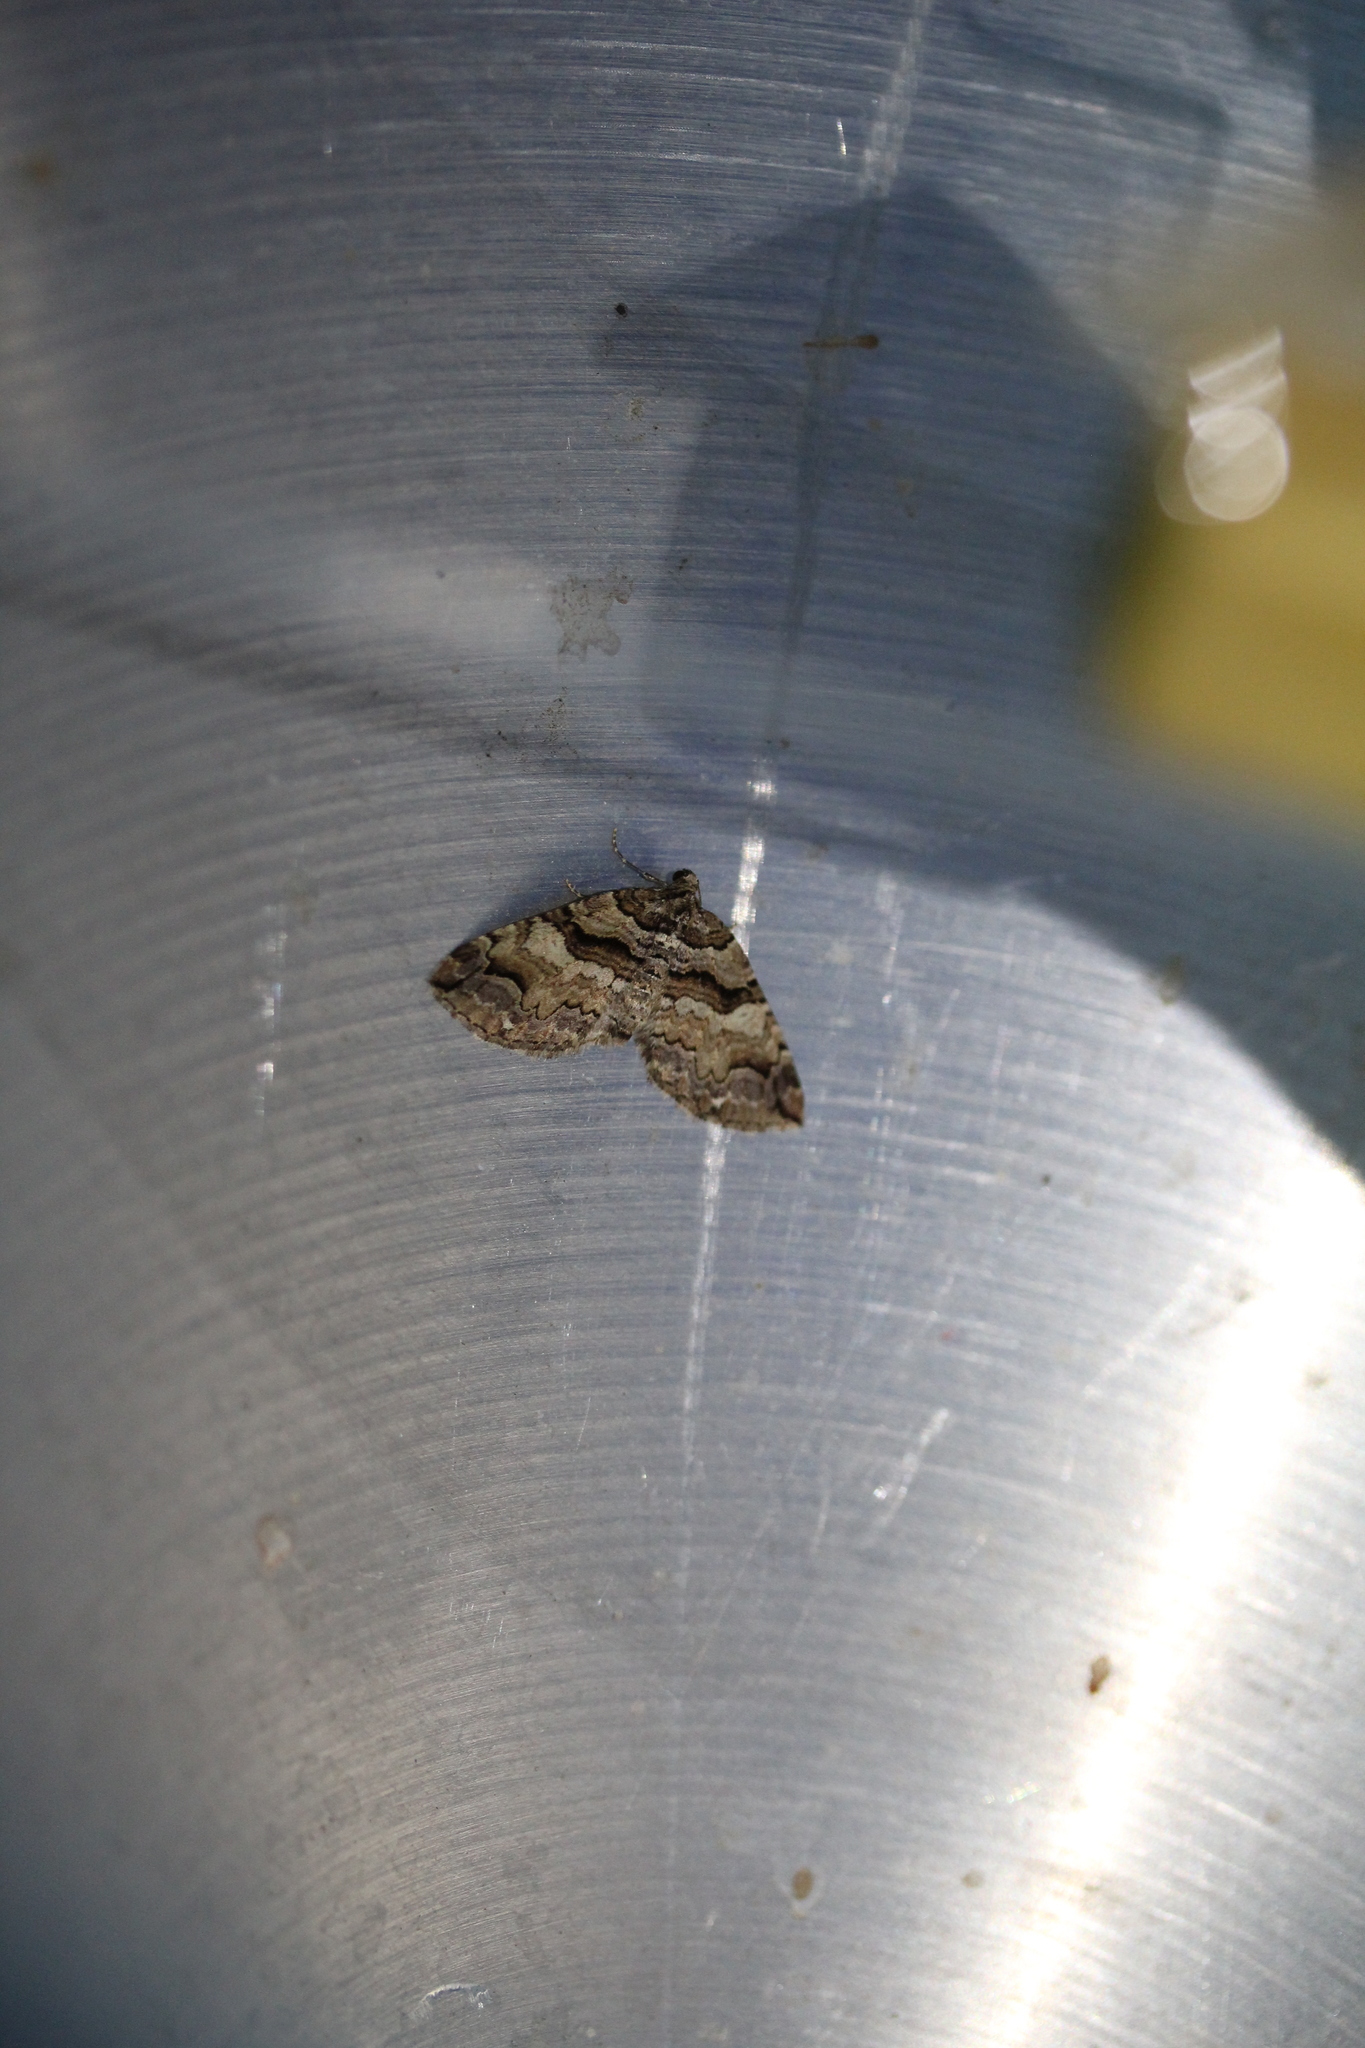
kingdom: Animalia
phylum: Arthropoda
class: Insecta
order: Lepidoptera
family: Geometridae
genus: Anticlea
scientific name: Anticlea vasiliata
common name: Variable carpet
